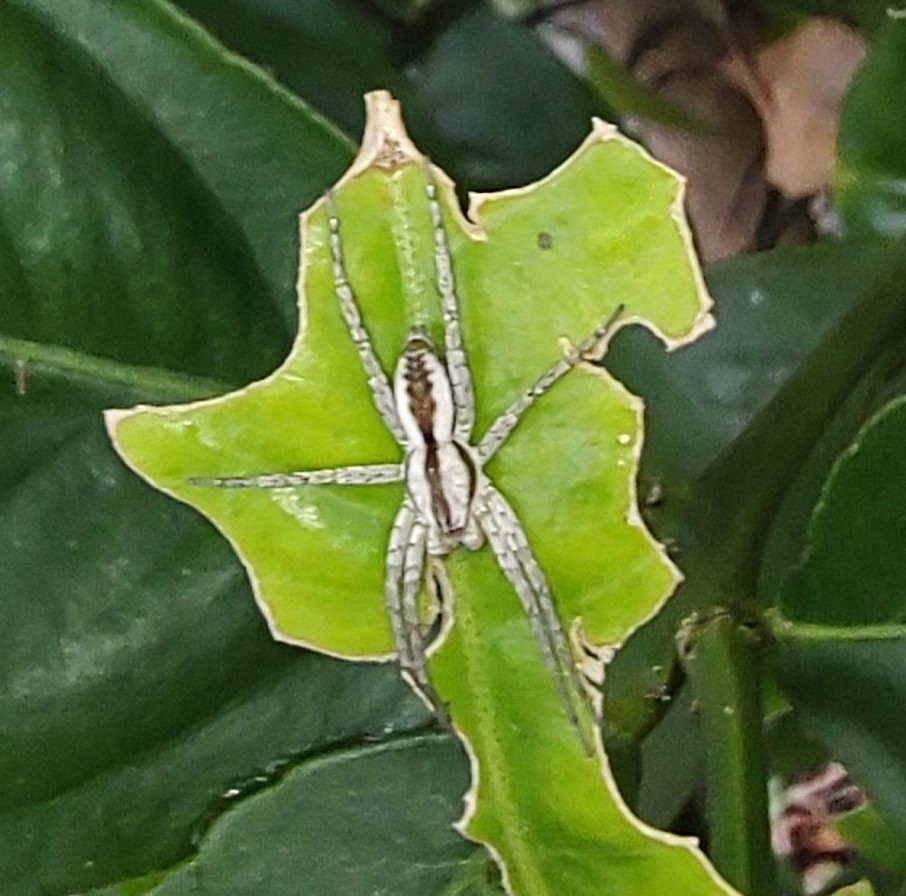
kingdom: Animalia
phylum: Arthropoda
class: Arachnida
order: Araneae
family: Anyphaenidae
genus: Arachosia
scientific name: Arachosia praesignis
